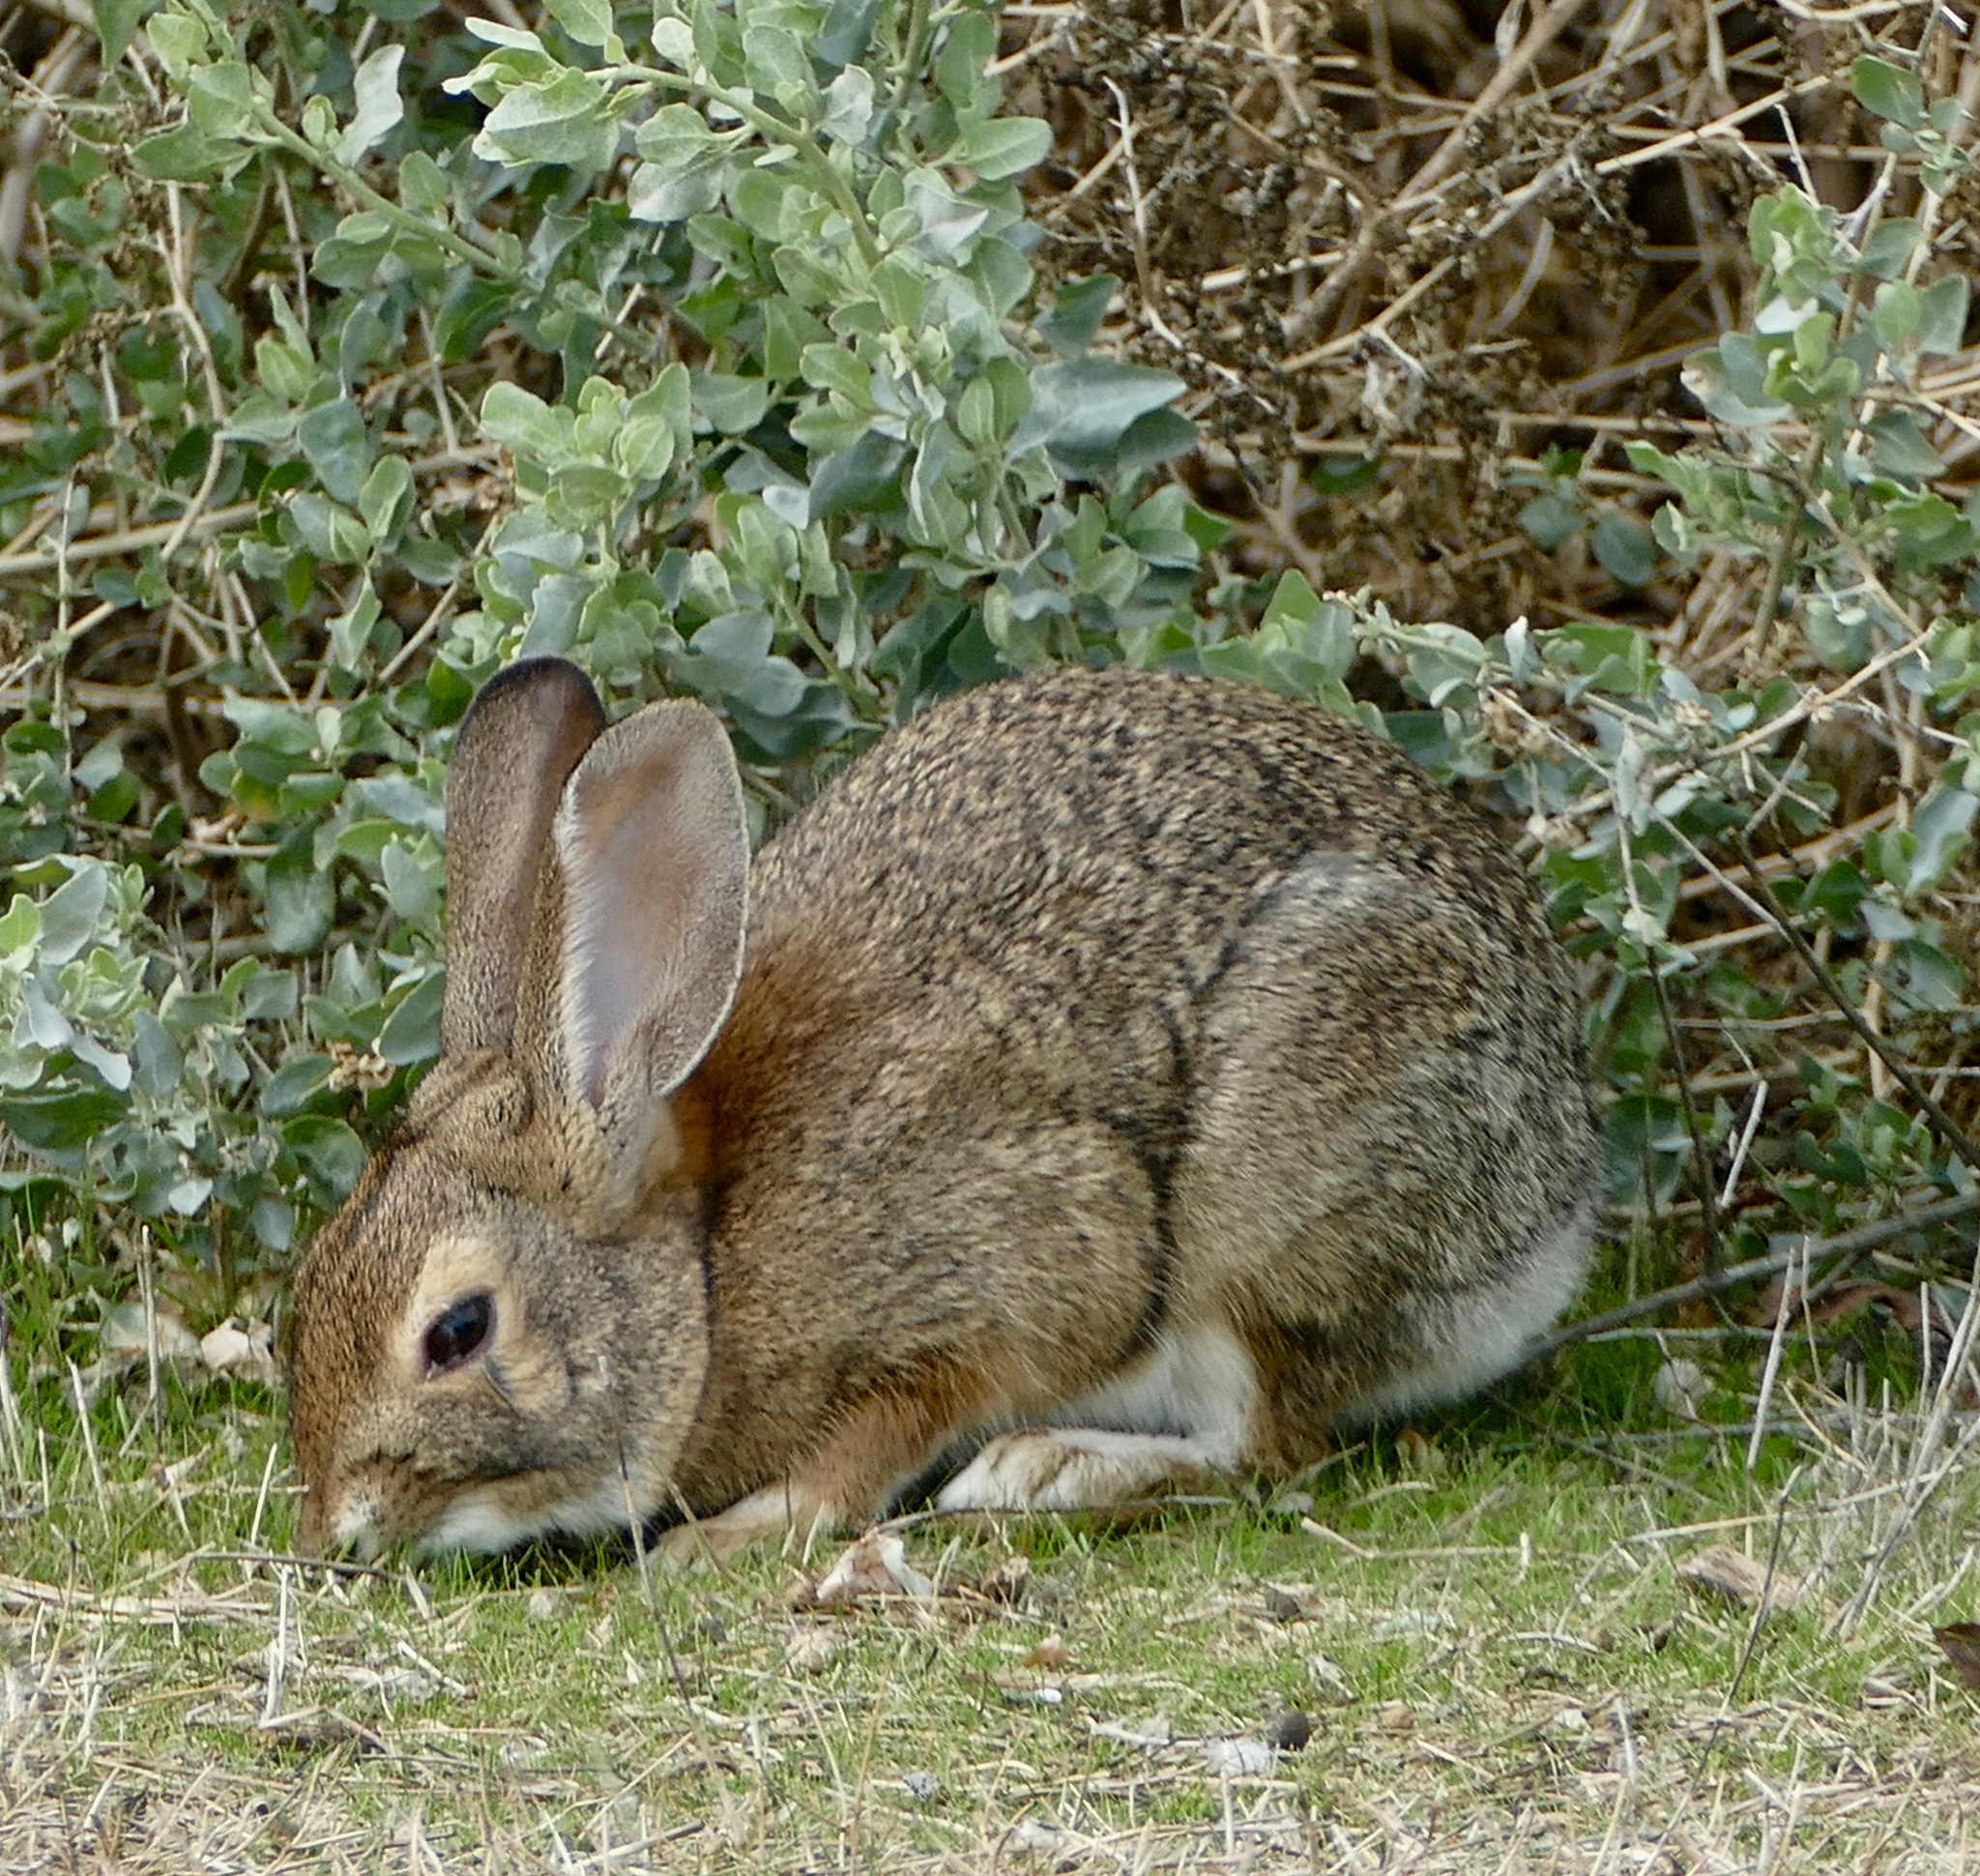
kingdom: Animalia
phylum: Chordata
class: Mammalia
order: Lagomorpha
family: Leporidae
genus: Sylvilagus
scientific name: Sylvilagus audubonii
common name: Desert cottontail
